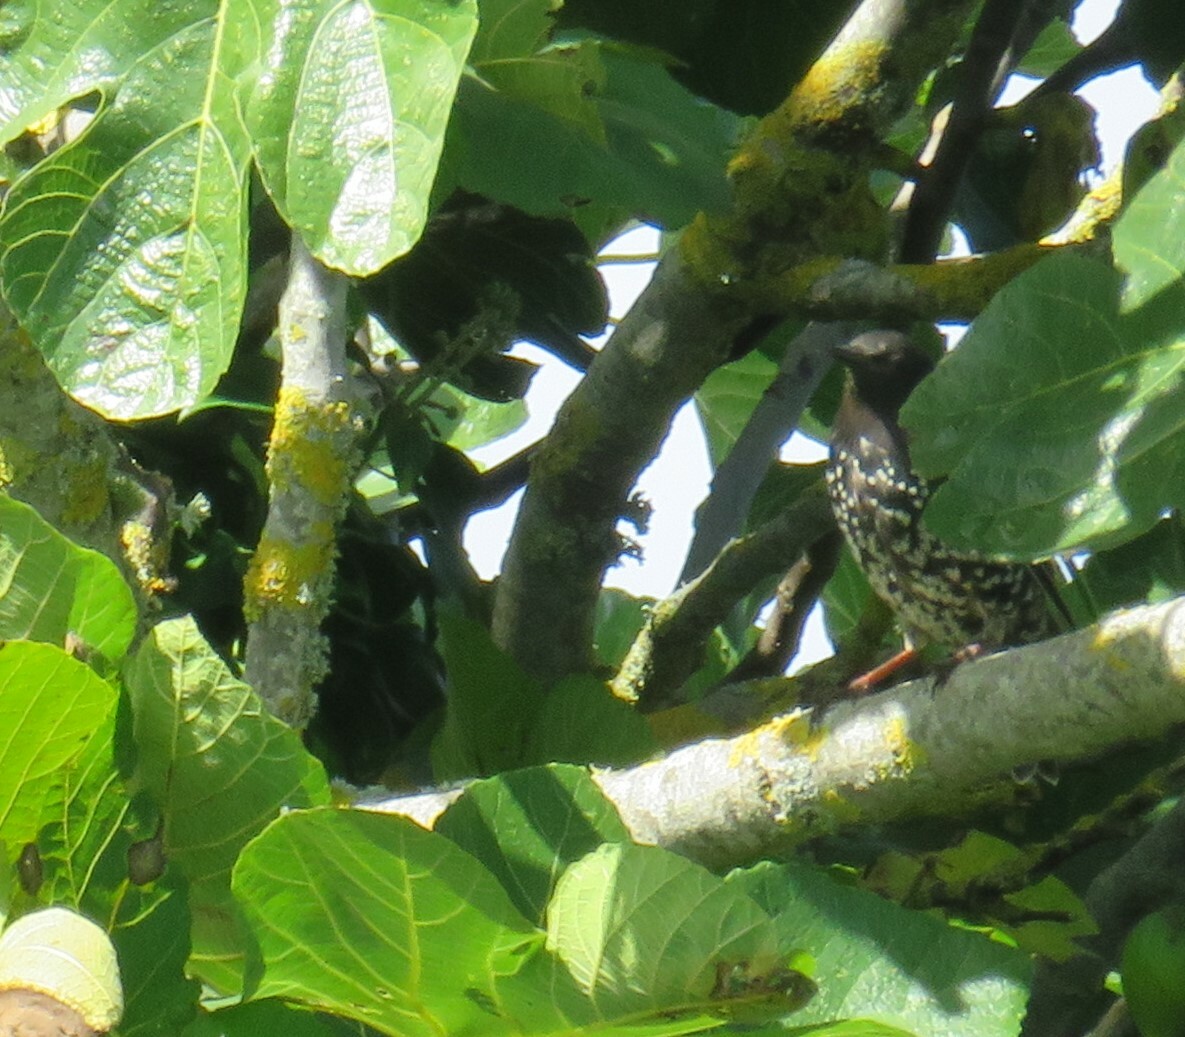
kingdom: Animalia
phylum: Chordata
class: Aves
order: Passeriformes
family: Sturnidae
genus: Sturnus
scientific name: Sturnus vulgaris
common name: Common starling
